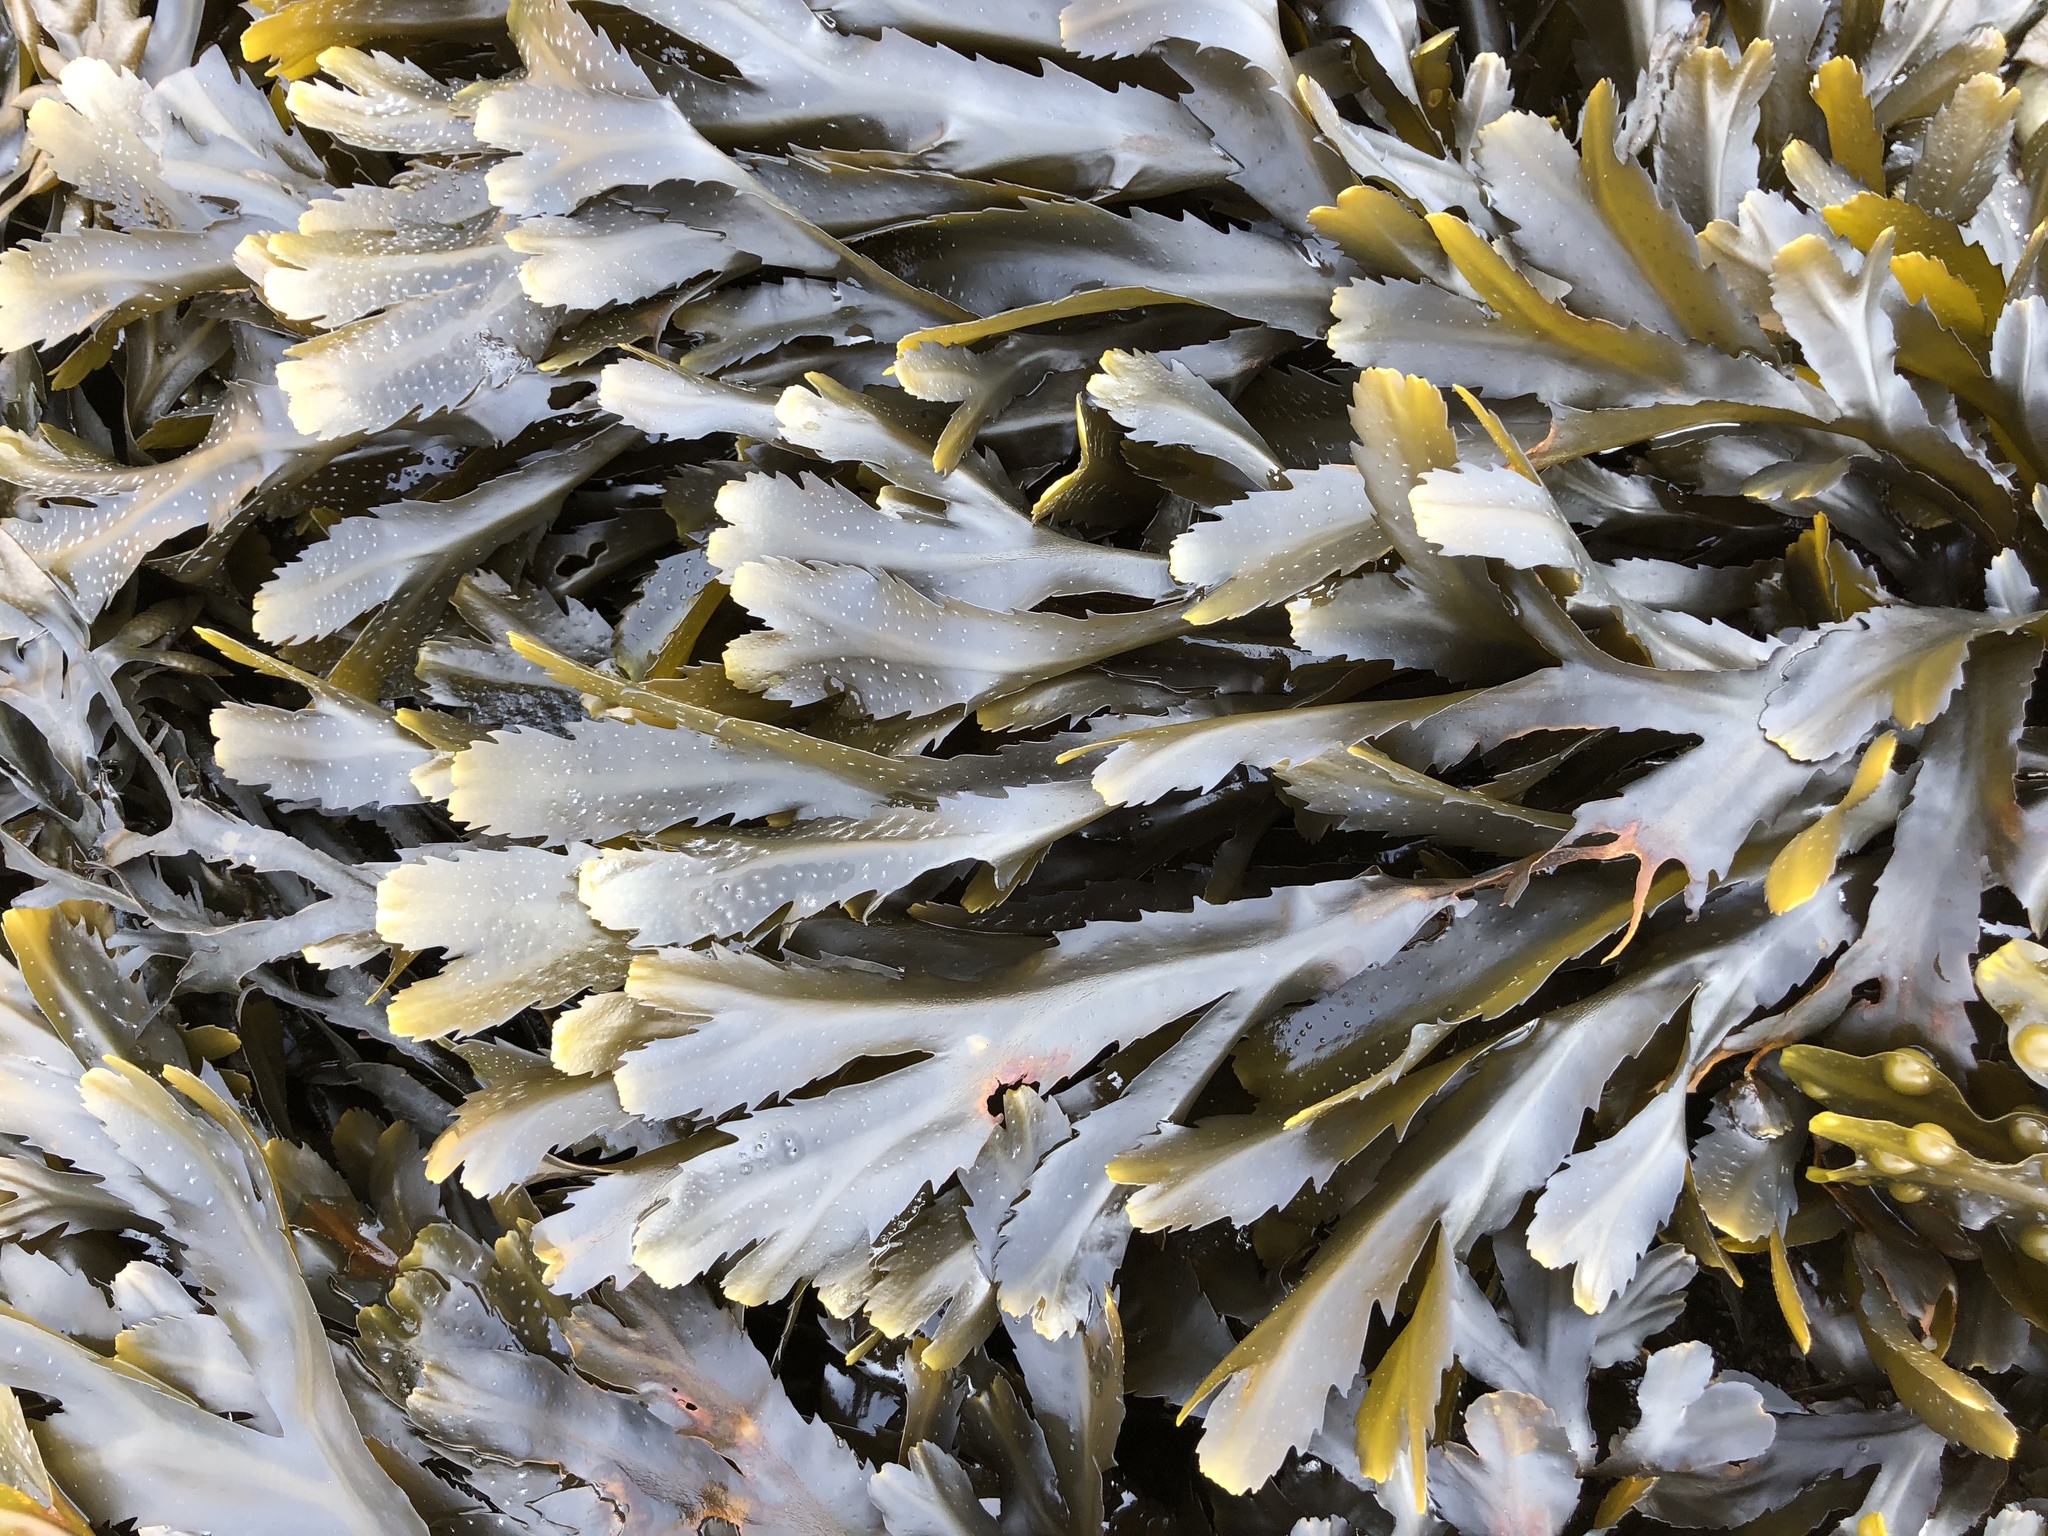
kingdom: Chromista
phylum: Ochrophyta
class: Phaeophyceae
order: Fucales
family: Fucaceae
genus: Fucus
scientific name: Fucus serratus
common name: Toothed wrack
